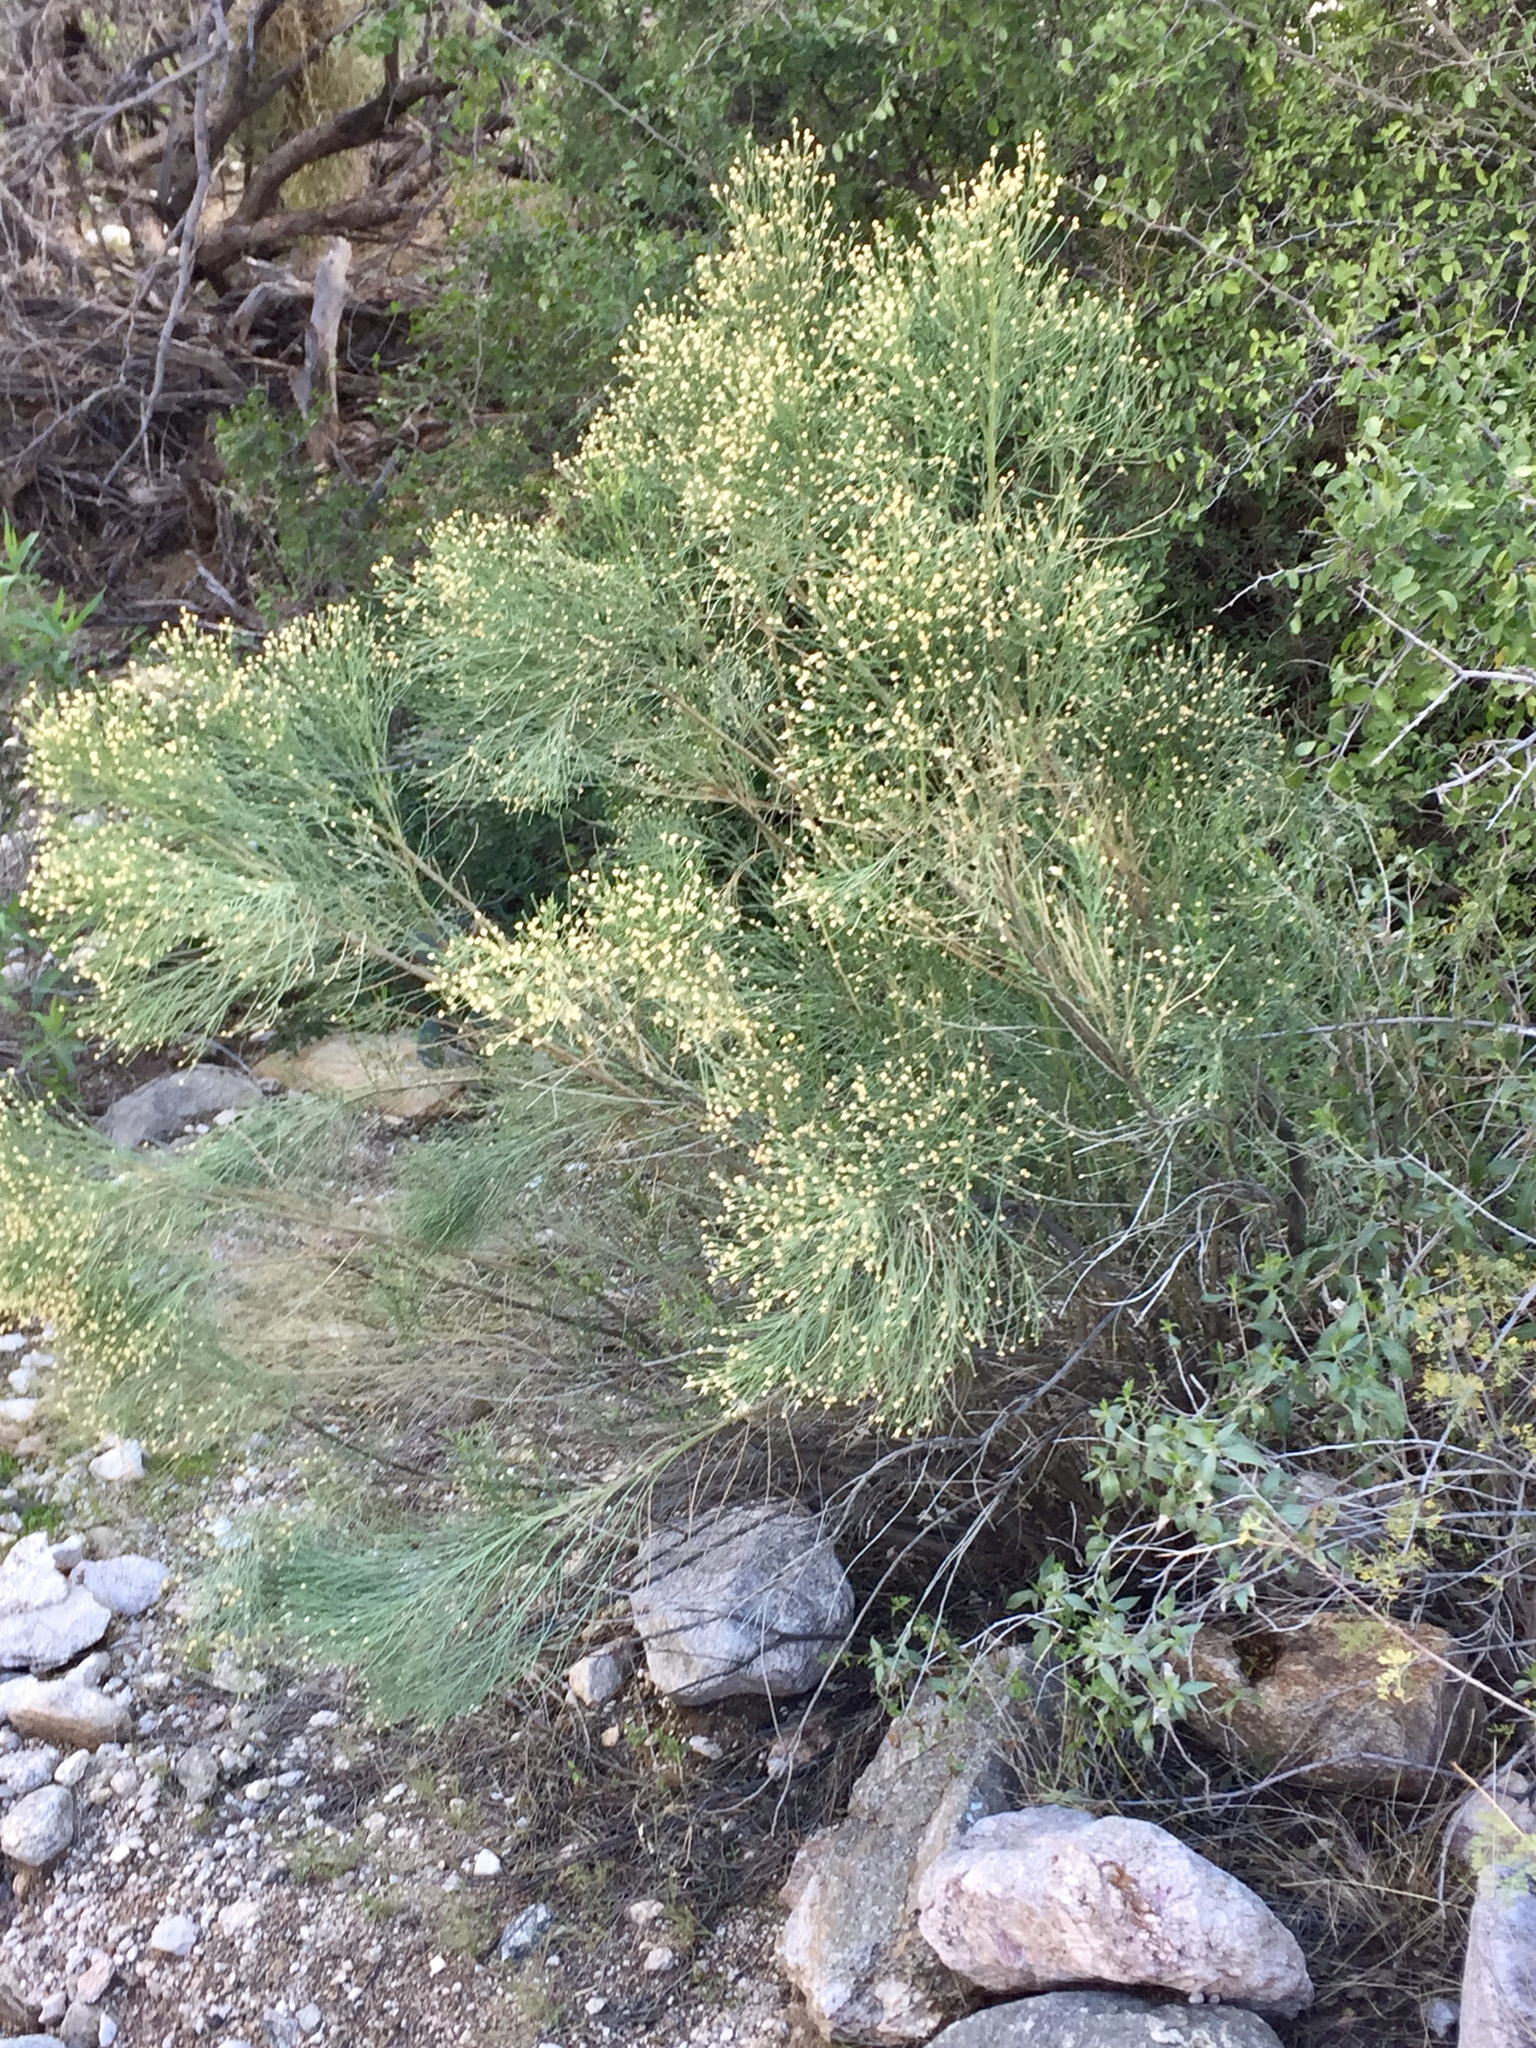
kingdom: Plantae
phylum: Tracheophyta
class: Magnoliopsida
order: Asterales
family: Asteraceae
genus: Baccharis
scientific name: Baccharis sarothroides
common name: Desert-broom
